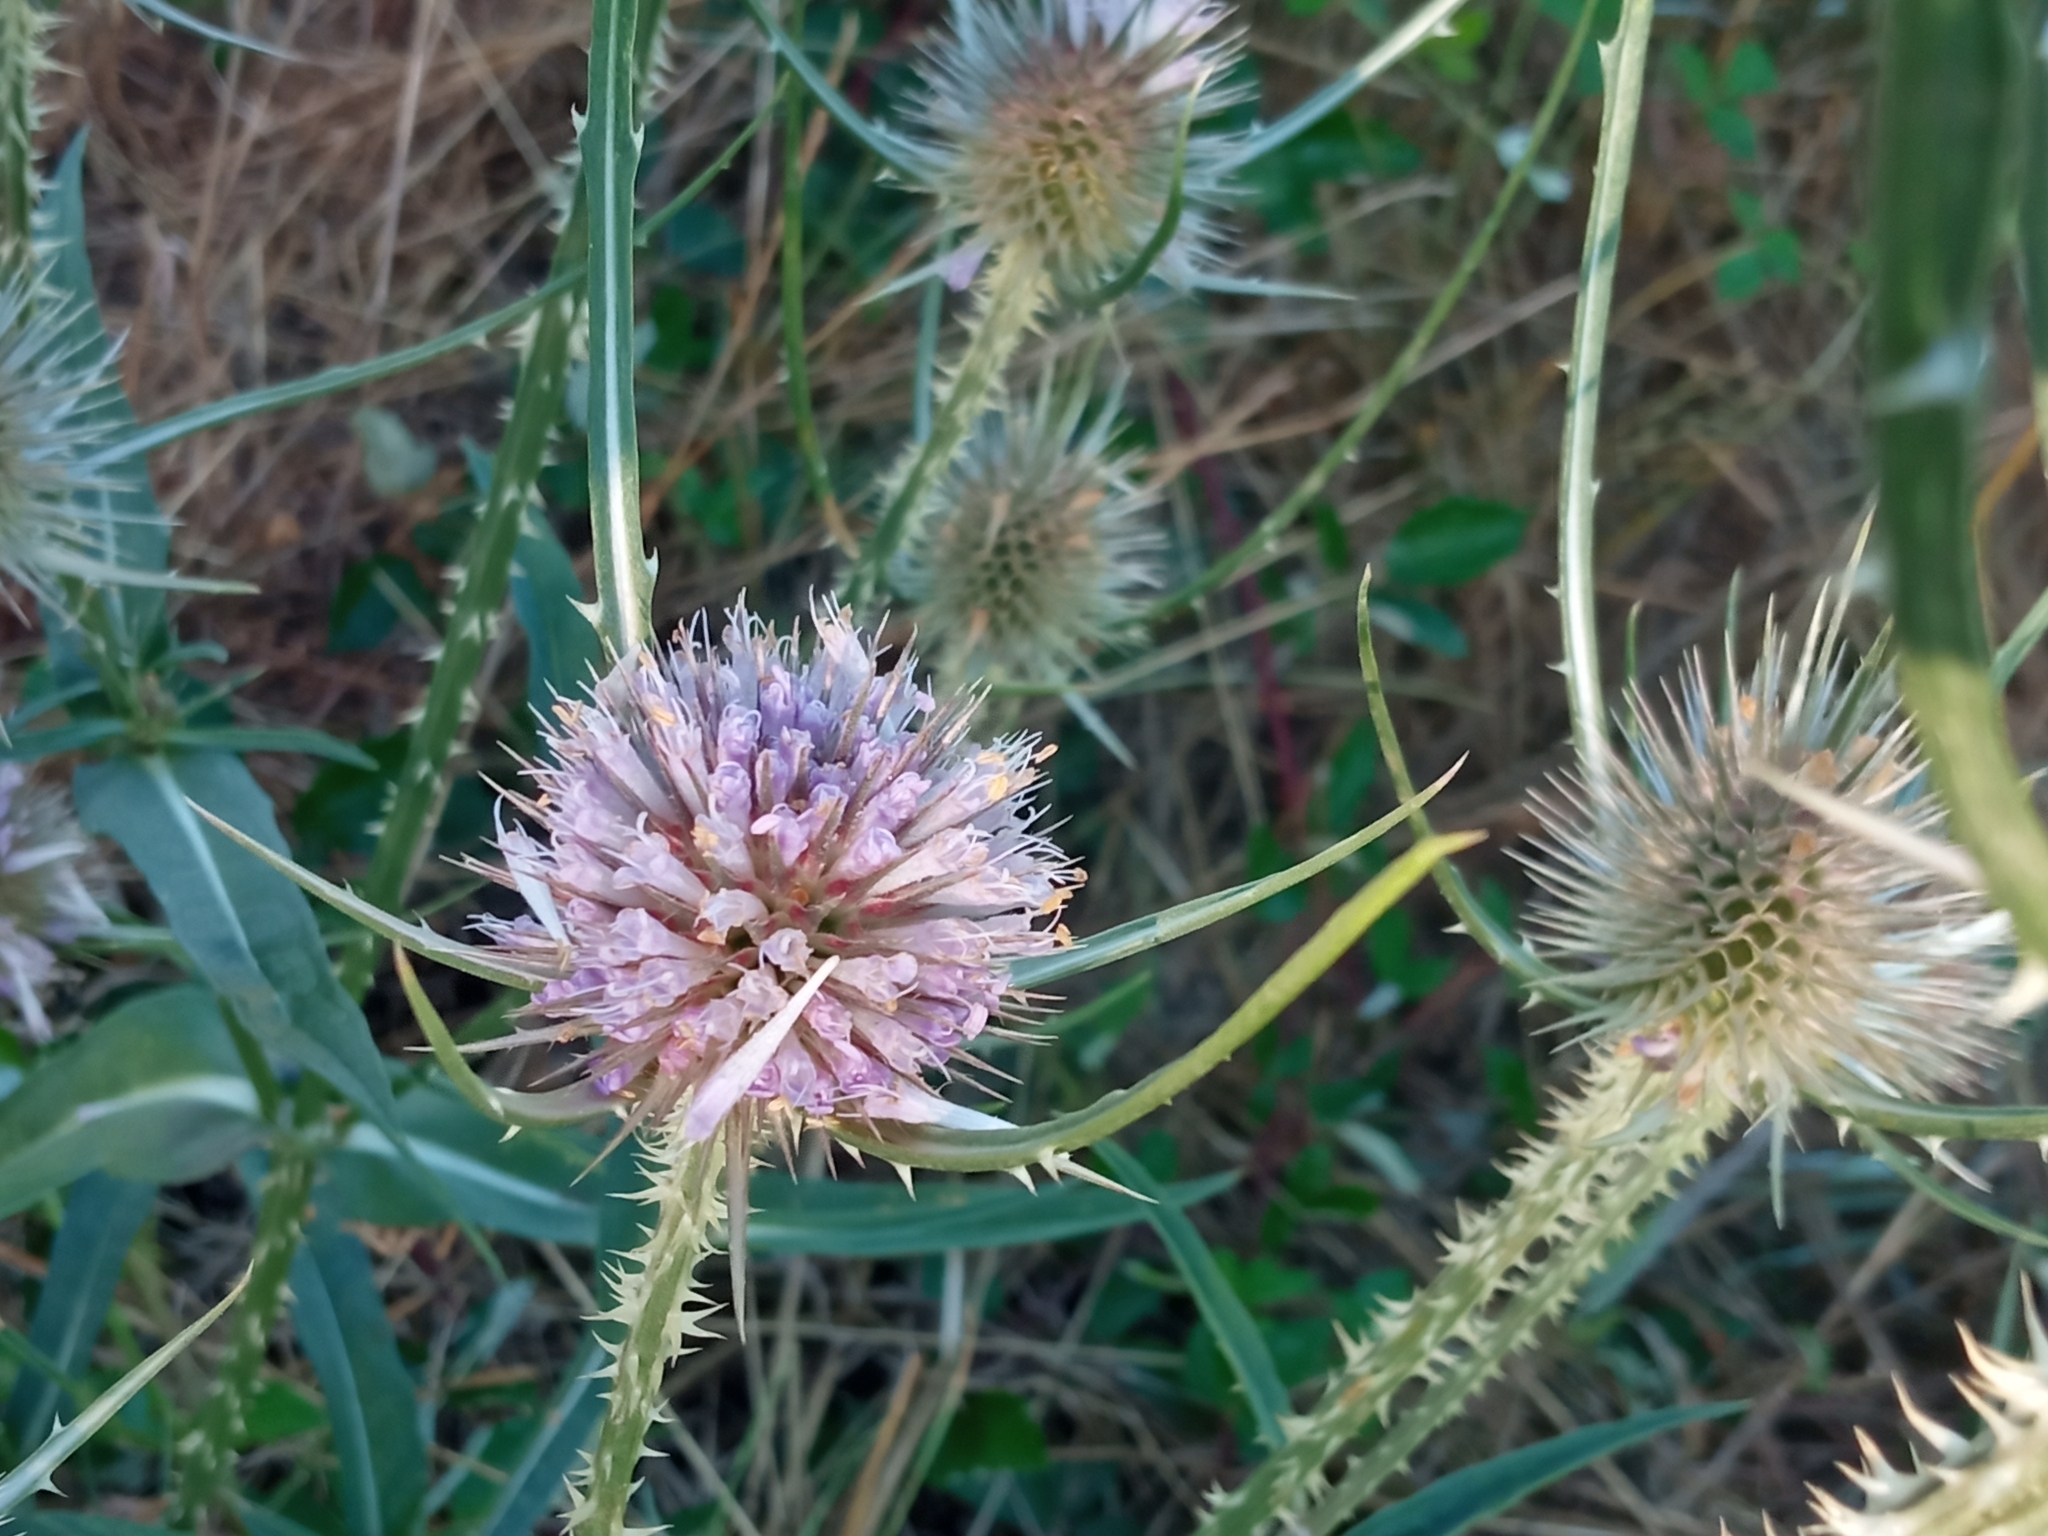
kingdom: Plantae
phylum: Tracheophyta
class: Magnoliopsida
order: Dipsacales
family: Caprifoliaceae
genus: Dipsacus
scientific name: Dipsacus fullonum
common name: Teasel
